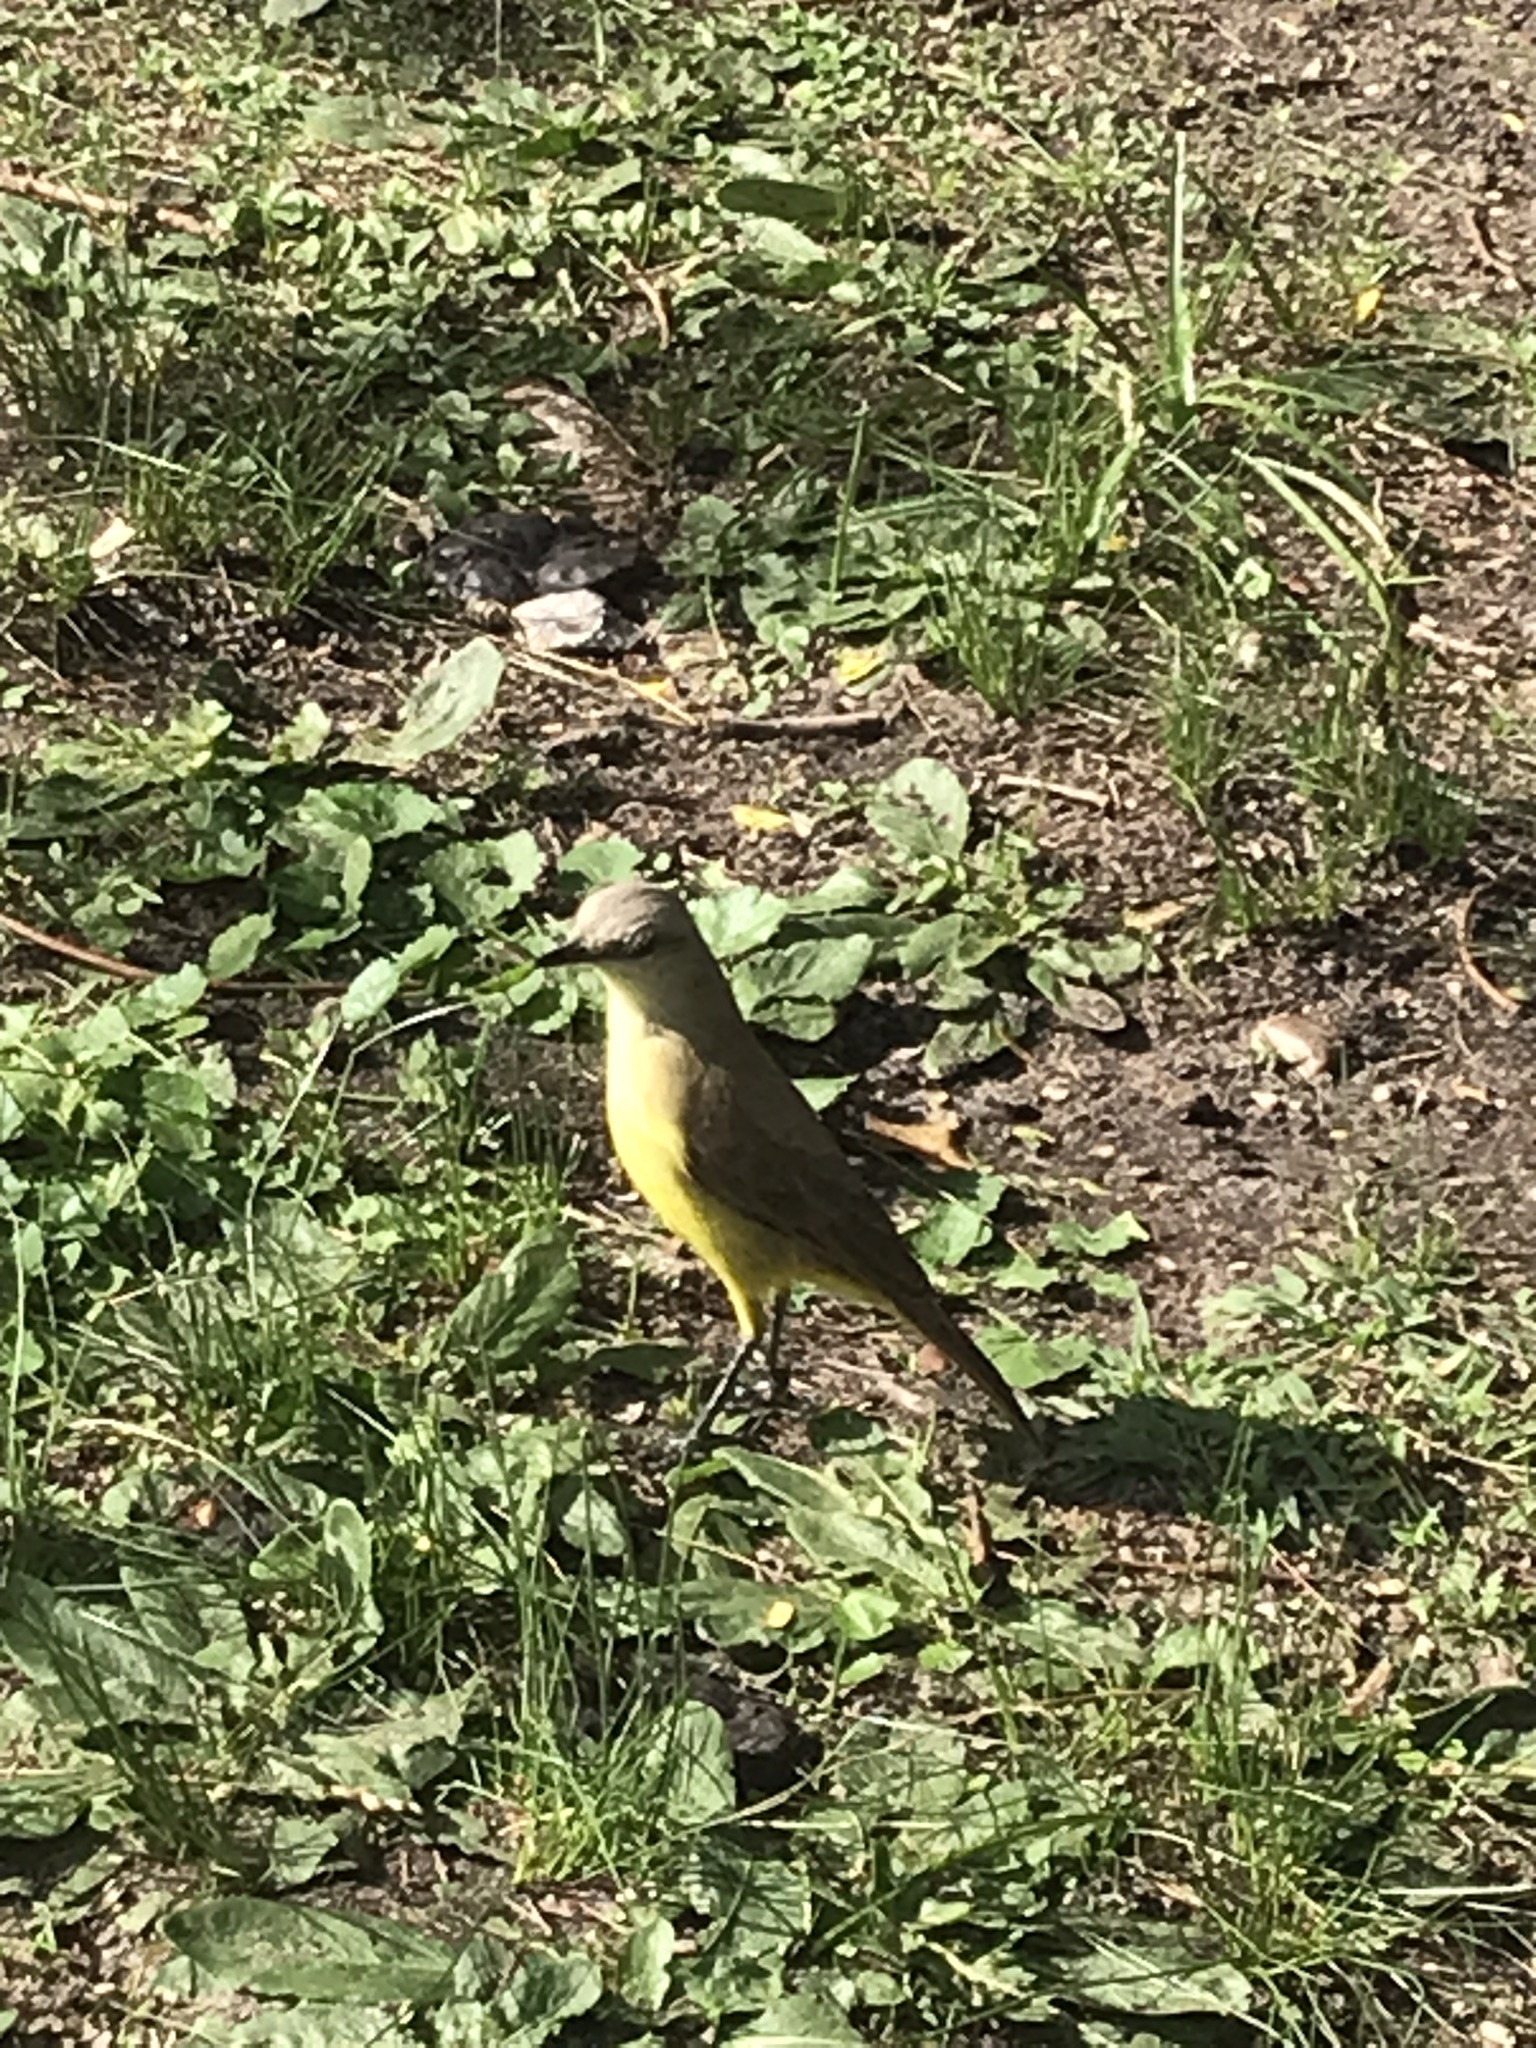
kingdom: Animalia
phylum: Chordata
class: Aves
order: Passeriformes
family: Tyrannidae
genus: Machetornis
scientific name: Machetornis rixosa
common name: Cattle tyrant
